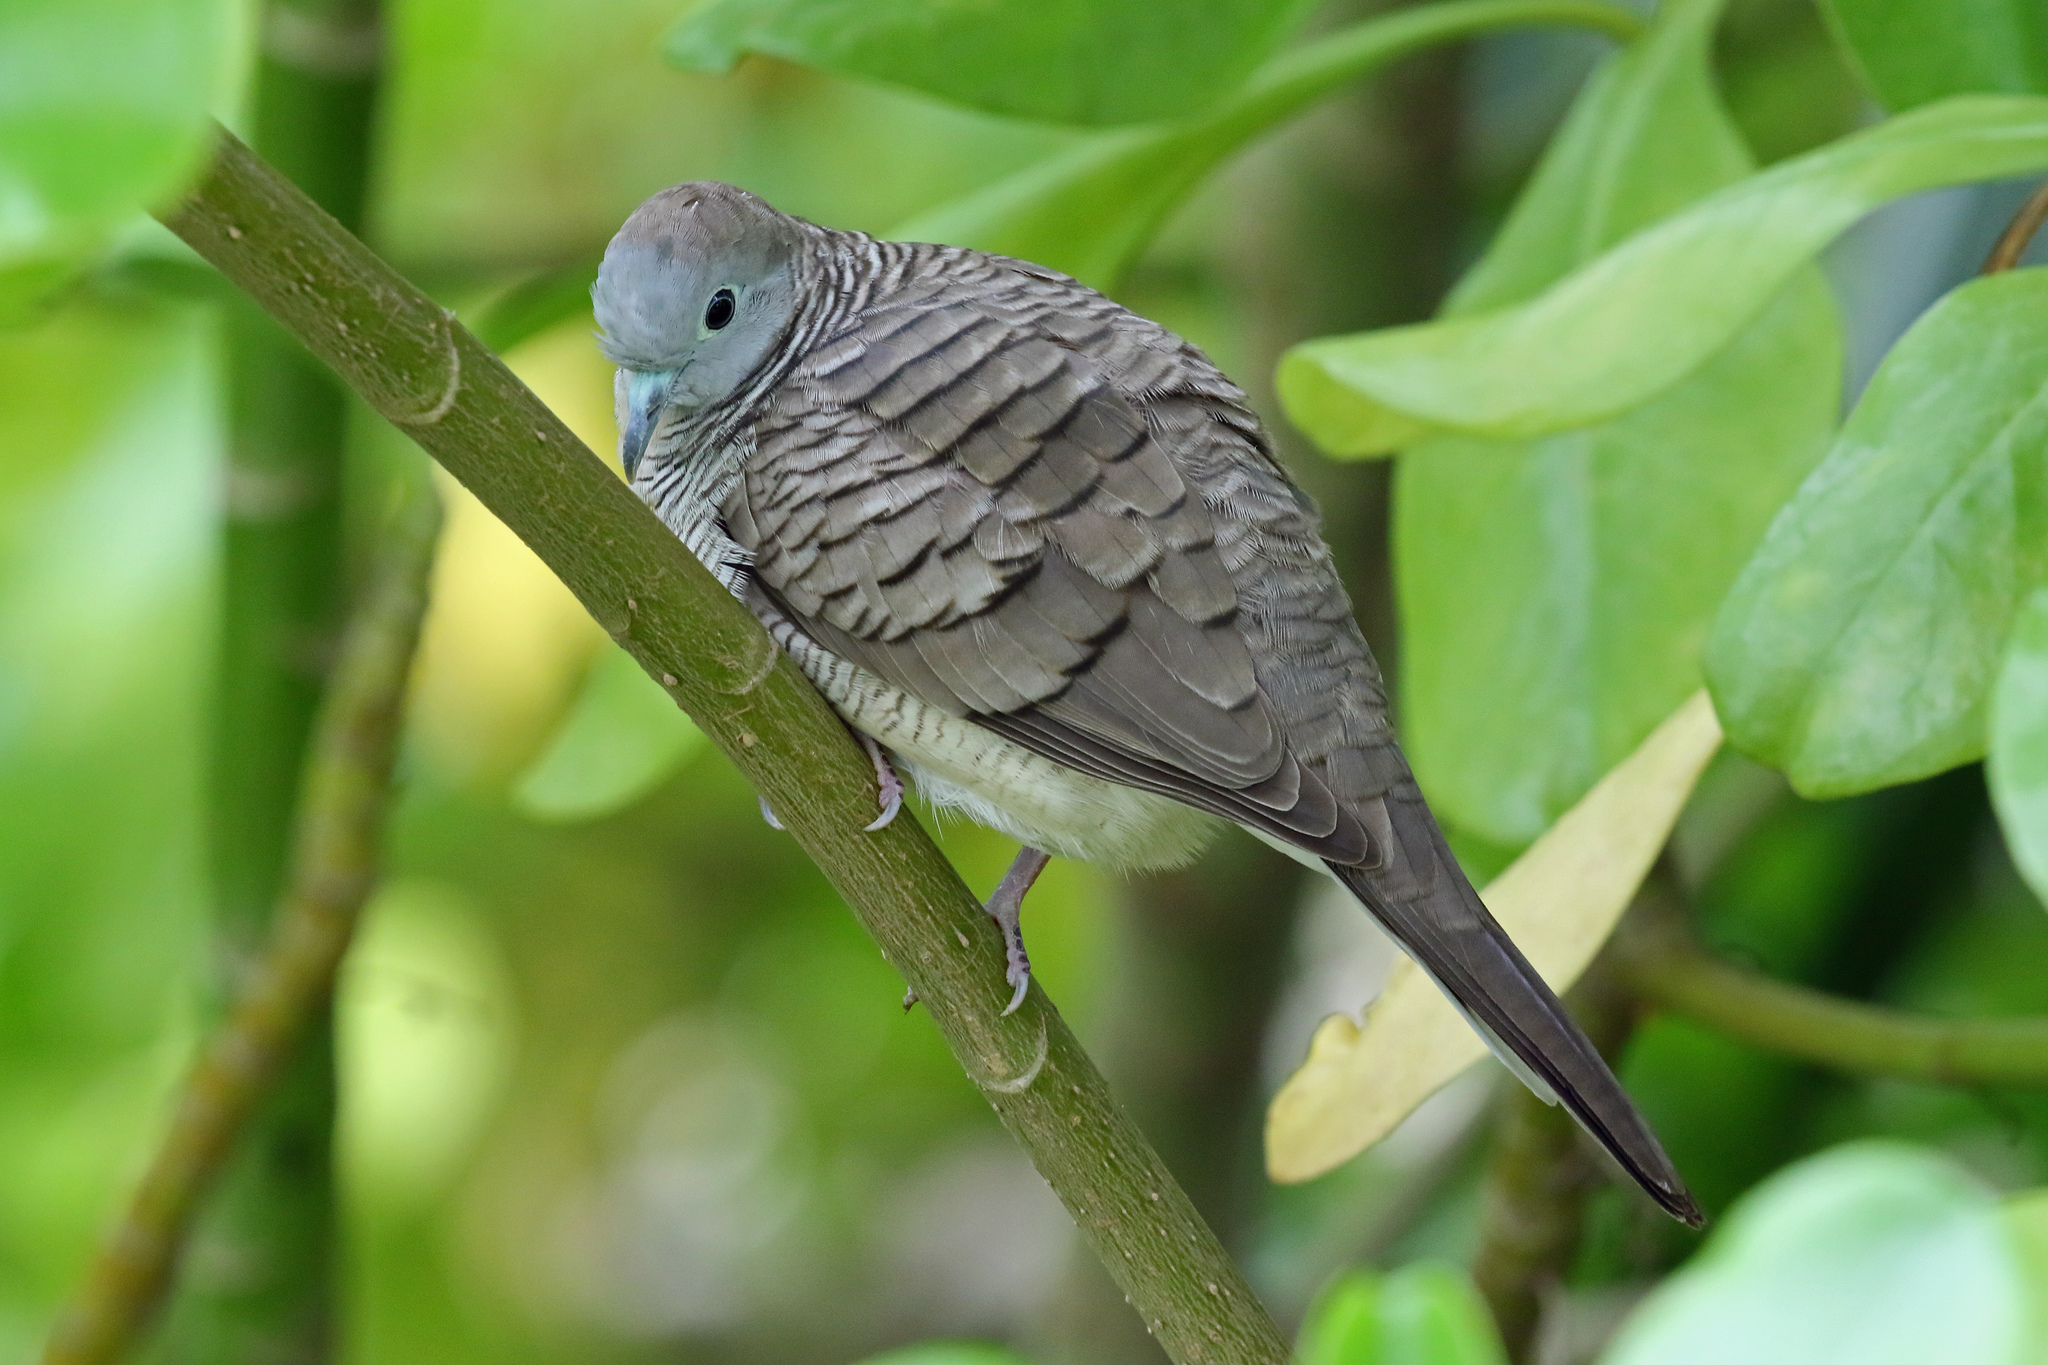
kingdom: Animalia
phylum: Chordata
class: Aves
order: Columbiformes
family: Columbidae
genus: Geopelia
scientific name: Geopelia striata
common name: Zebra dove
